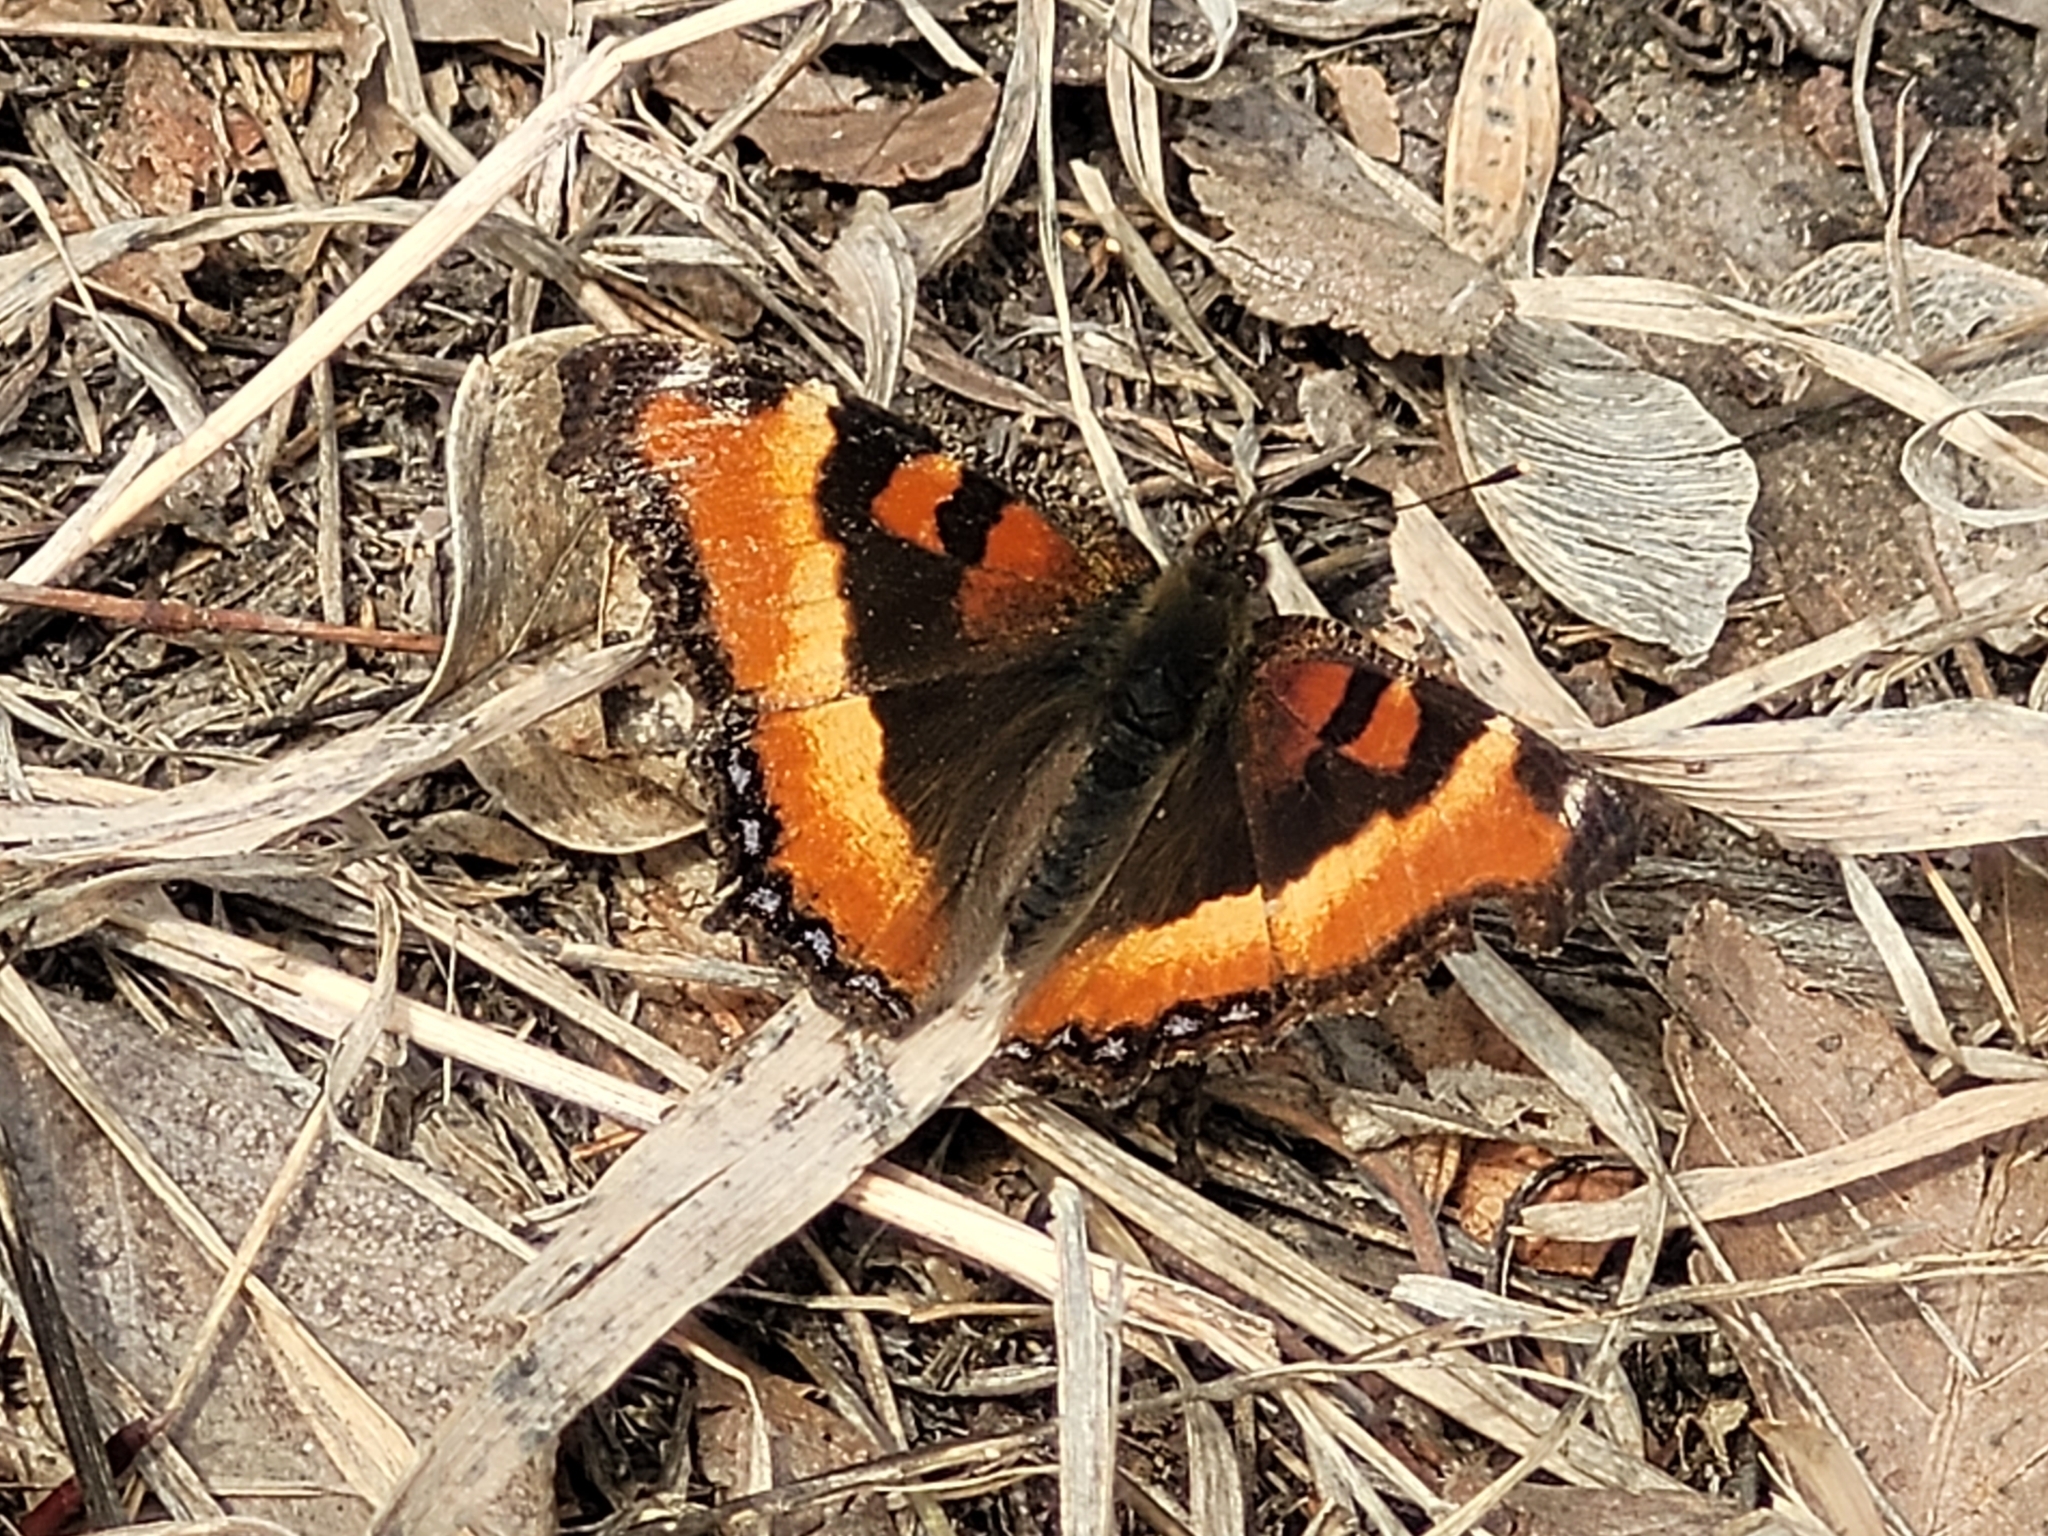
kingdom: Animalia
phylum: Arthropoda
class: Insecta
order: Lepidoptera
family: Nymphalidae
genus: Aglais
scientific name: Aglais milberti
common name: Milbert's tortoiseshell
